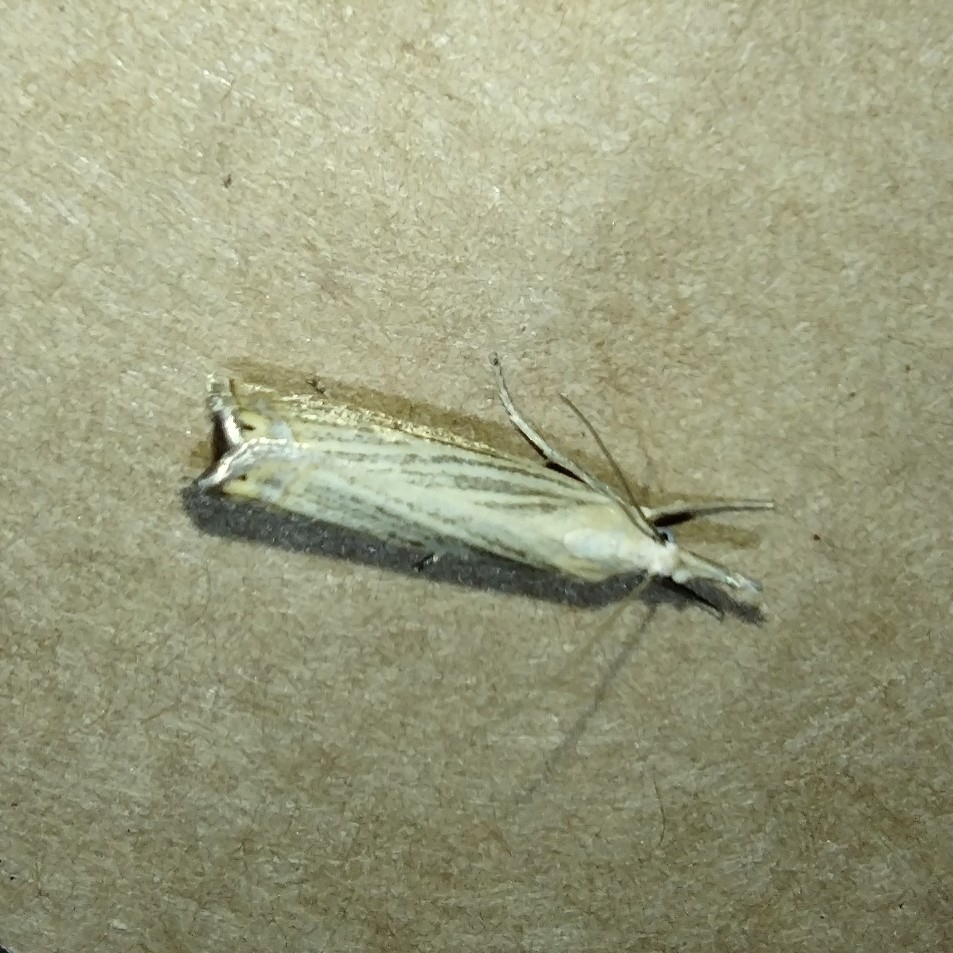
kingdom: Animalia
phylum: Arthropoda
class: Insecta
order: Lepidoptera
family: Crambidae
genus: Chrysoteuchia
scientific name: Chrysoteuchia culmella
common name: Garden grass-veneer
